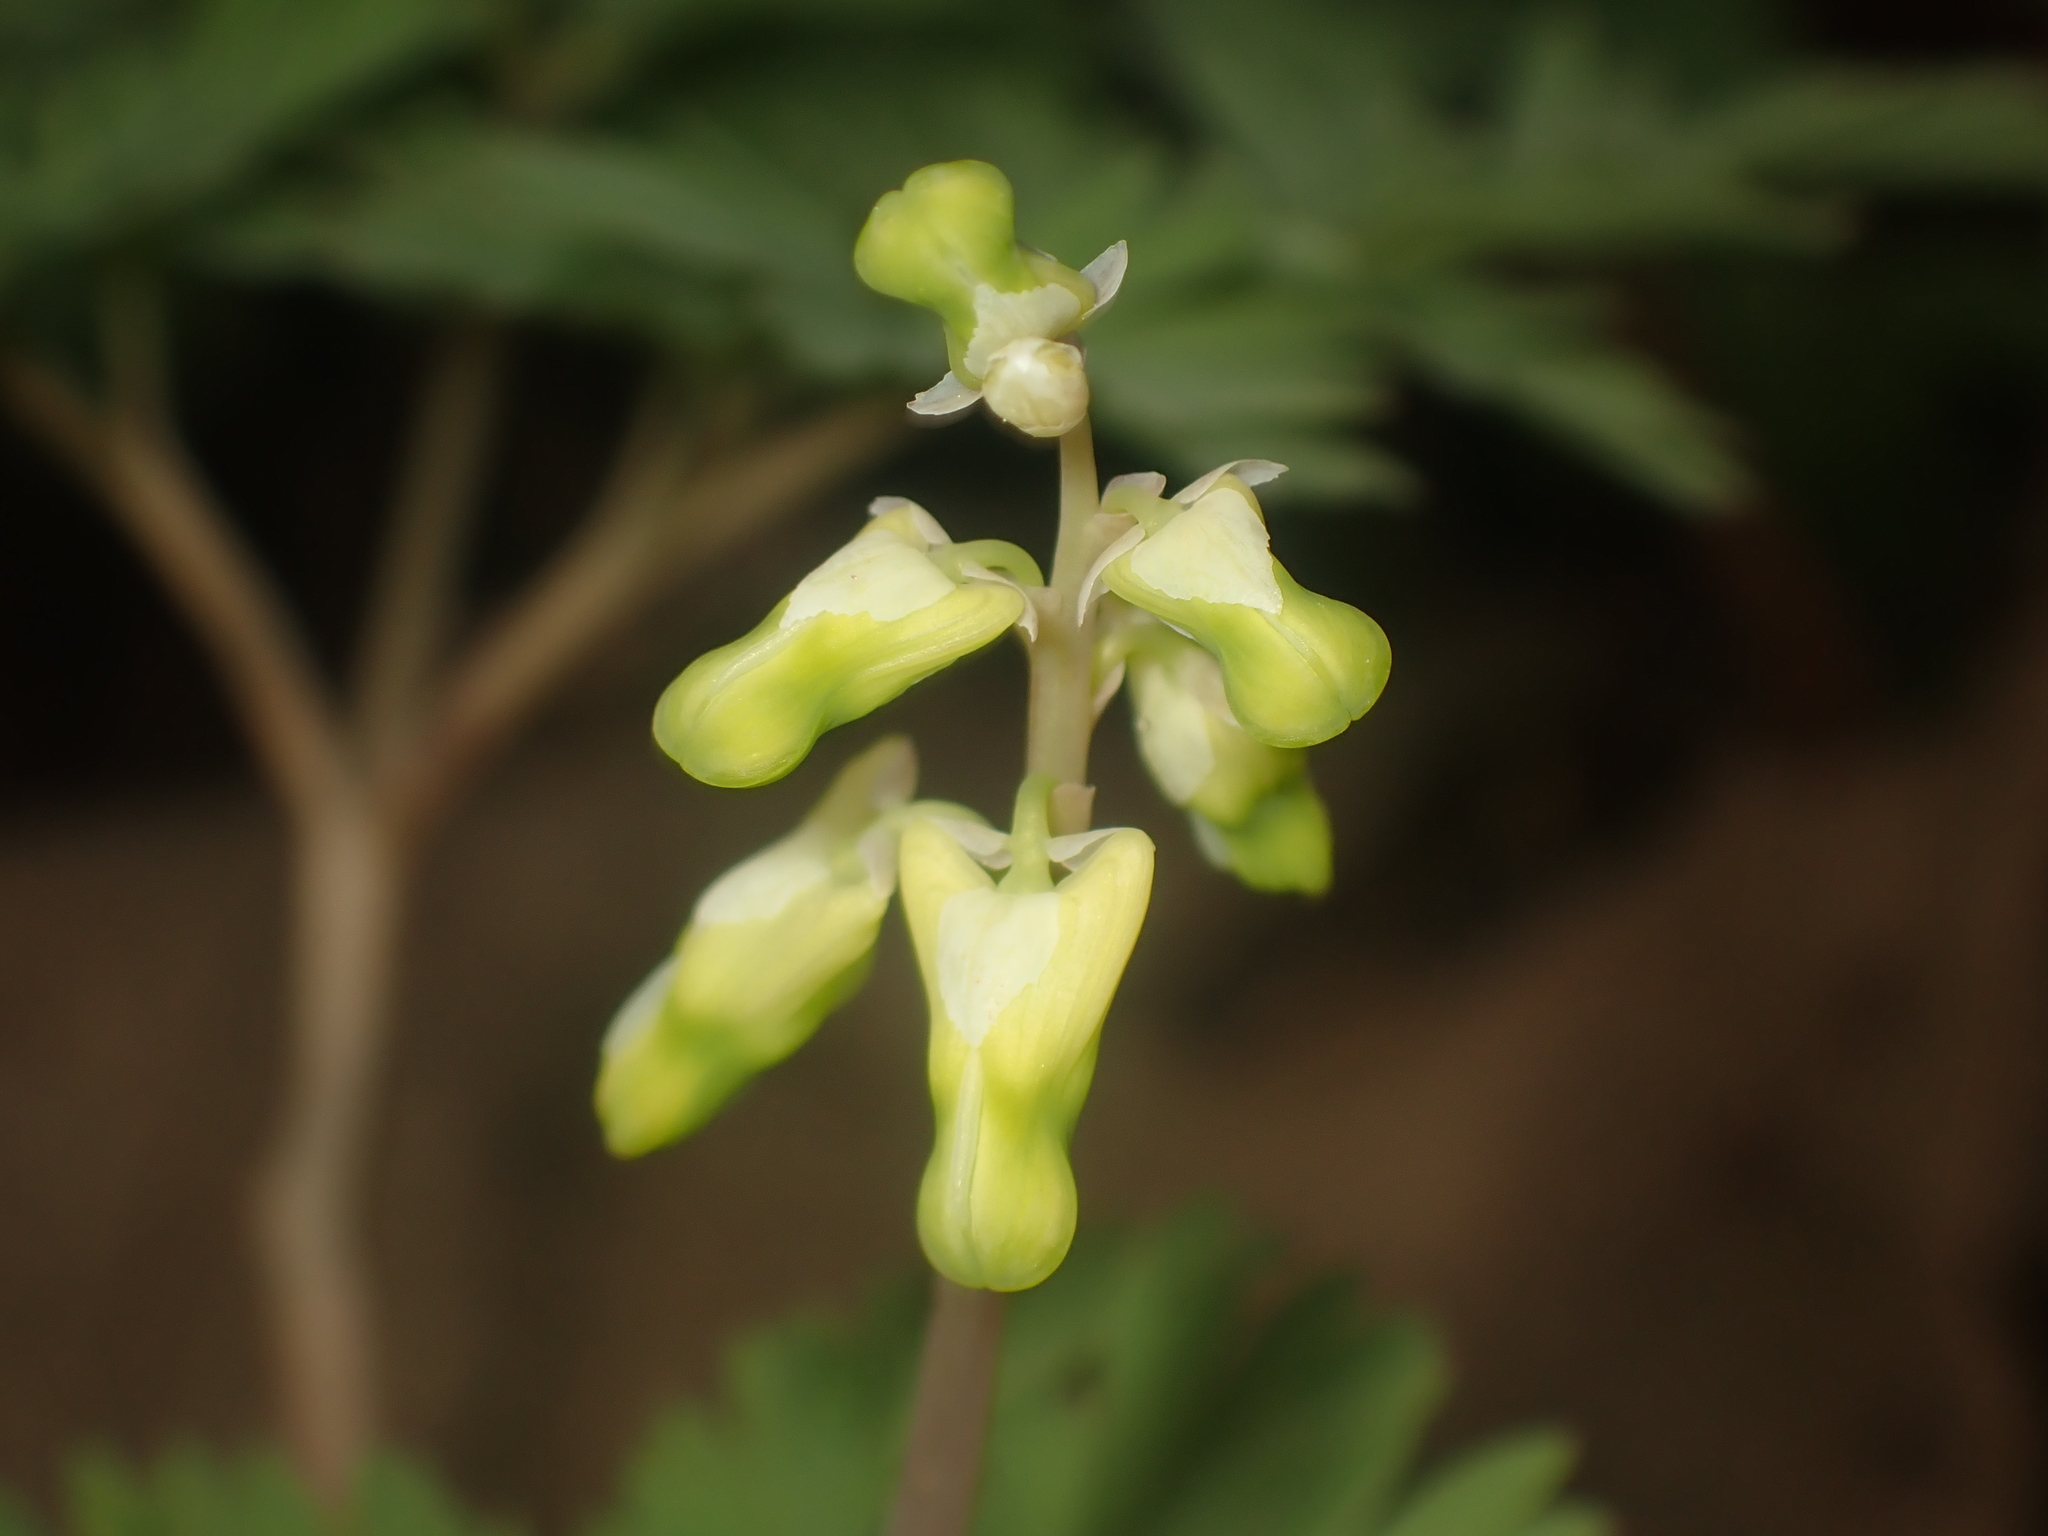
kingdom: Plantae
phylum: Tracheophyta
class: Magnoliopsida
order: Ranunculales
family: Papaveraceae
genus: Dicentra
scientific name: Dicentra cucullaria
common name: Dutchman's breeches
